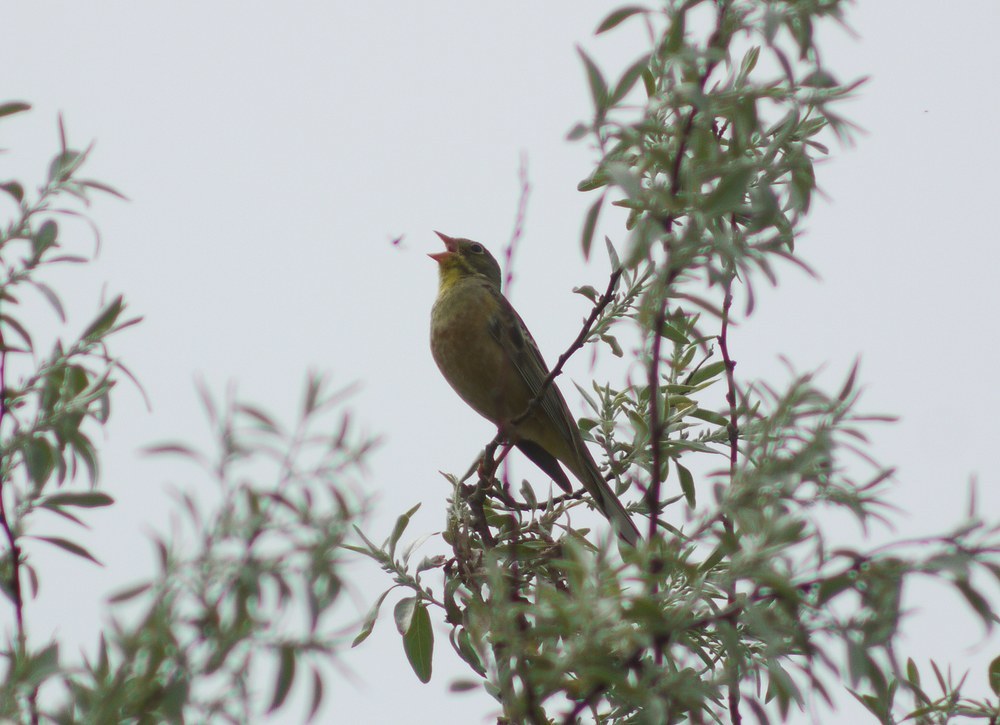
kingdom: Animalia
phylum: Chordata
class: Aves
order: Passeriformes
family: Emberizidae
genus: Emberiza
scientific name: Emberiza hortulana
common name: Ortolan bunting
